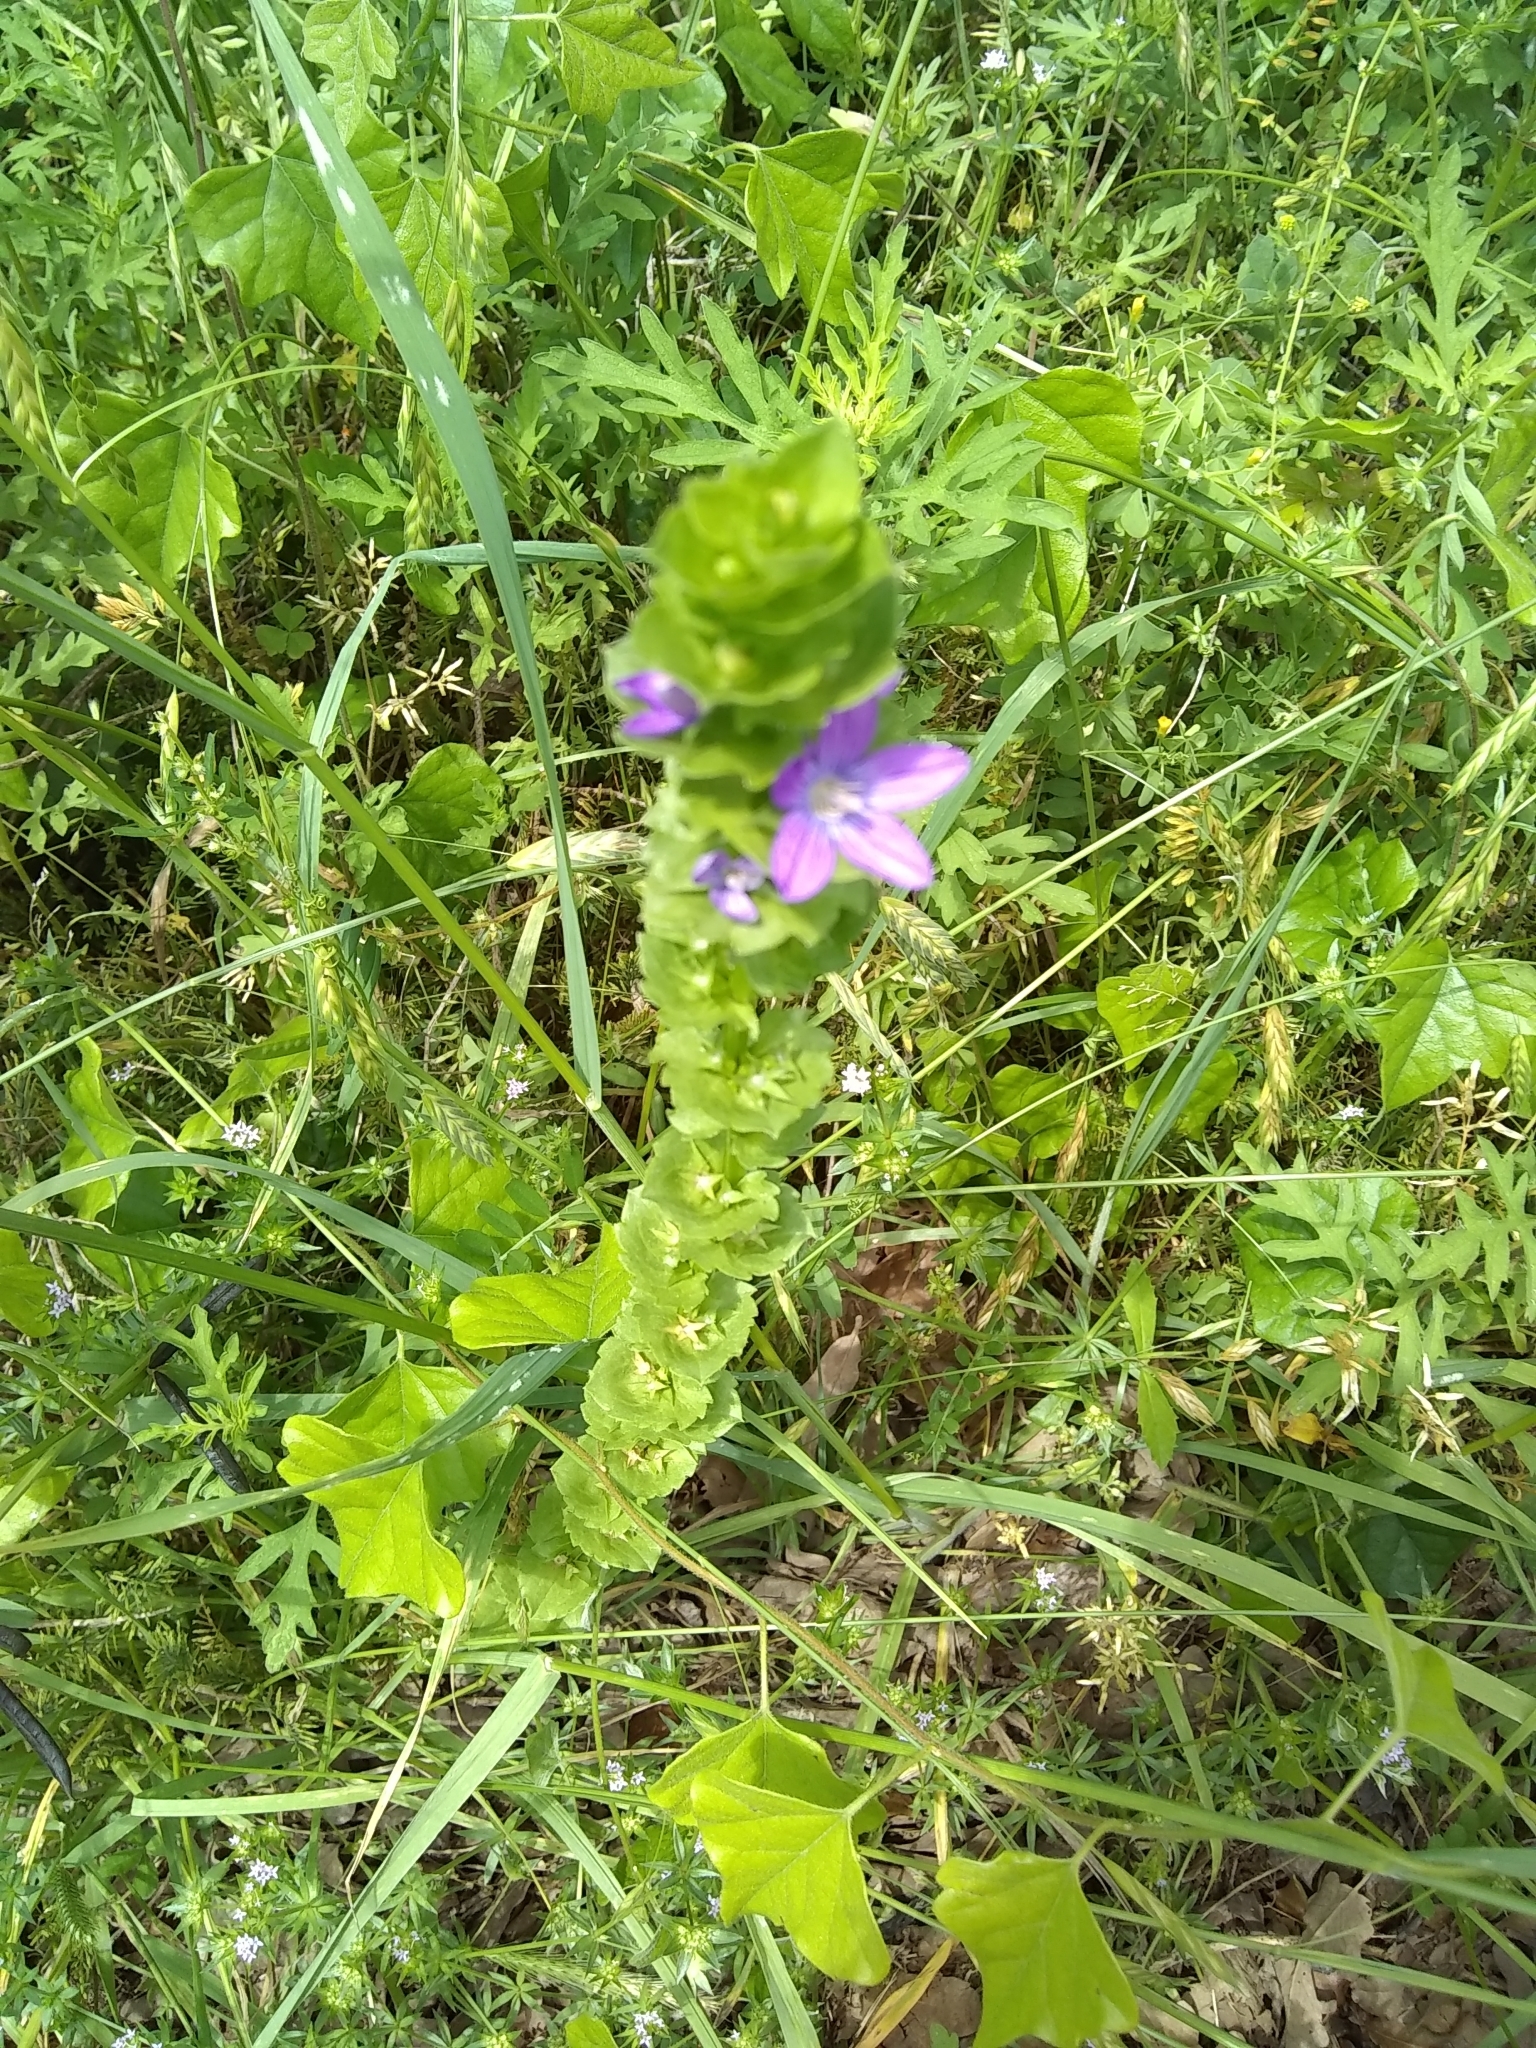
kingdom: Plantae
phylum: Tracheophyta
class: Magnoliopsida
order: Asterales
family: Campanulaceae
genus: Triodanis
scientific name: Triodanis perfoliata
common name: Clasping venus' looking-glass
